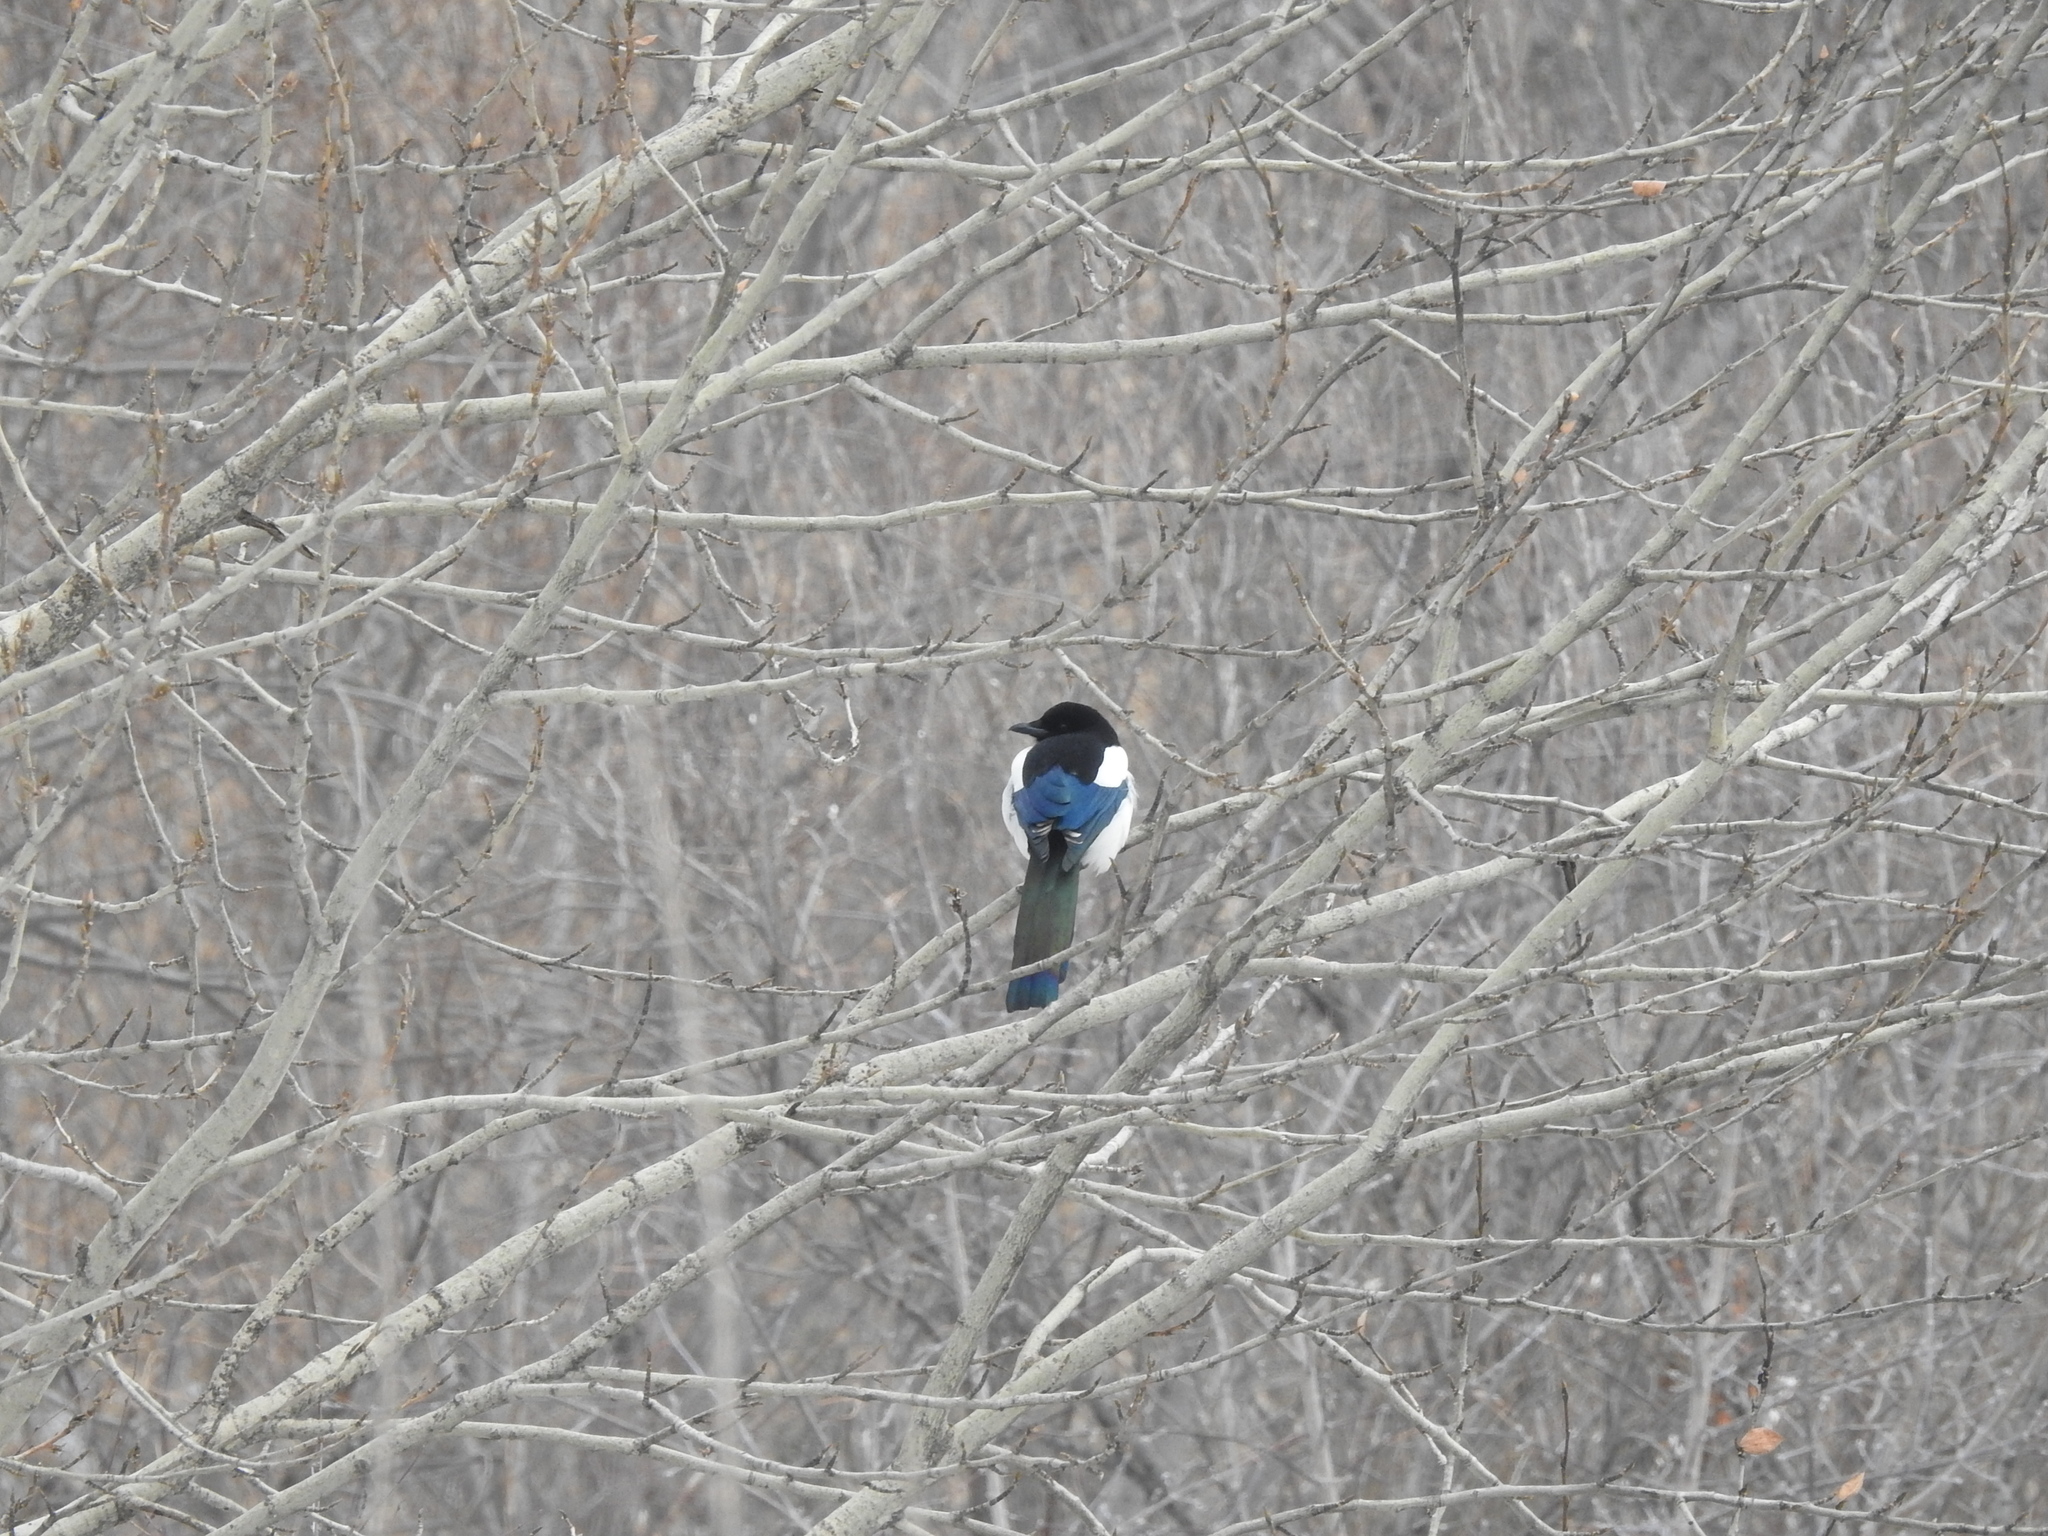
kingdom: Animalia
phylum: Chordata
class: Aves
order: Passeriformes
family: Corvidae
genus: Pica
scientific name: Pica pica
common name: Eurasian magpie
